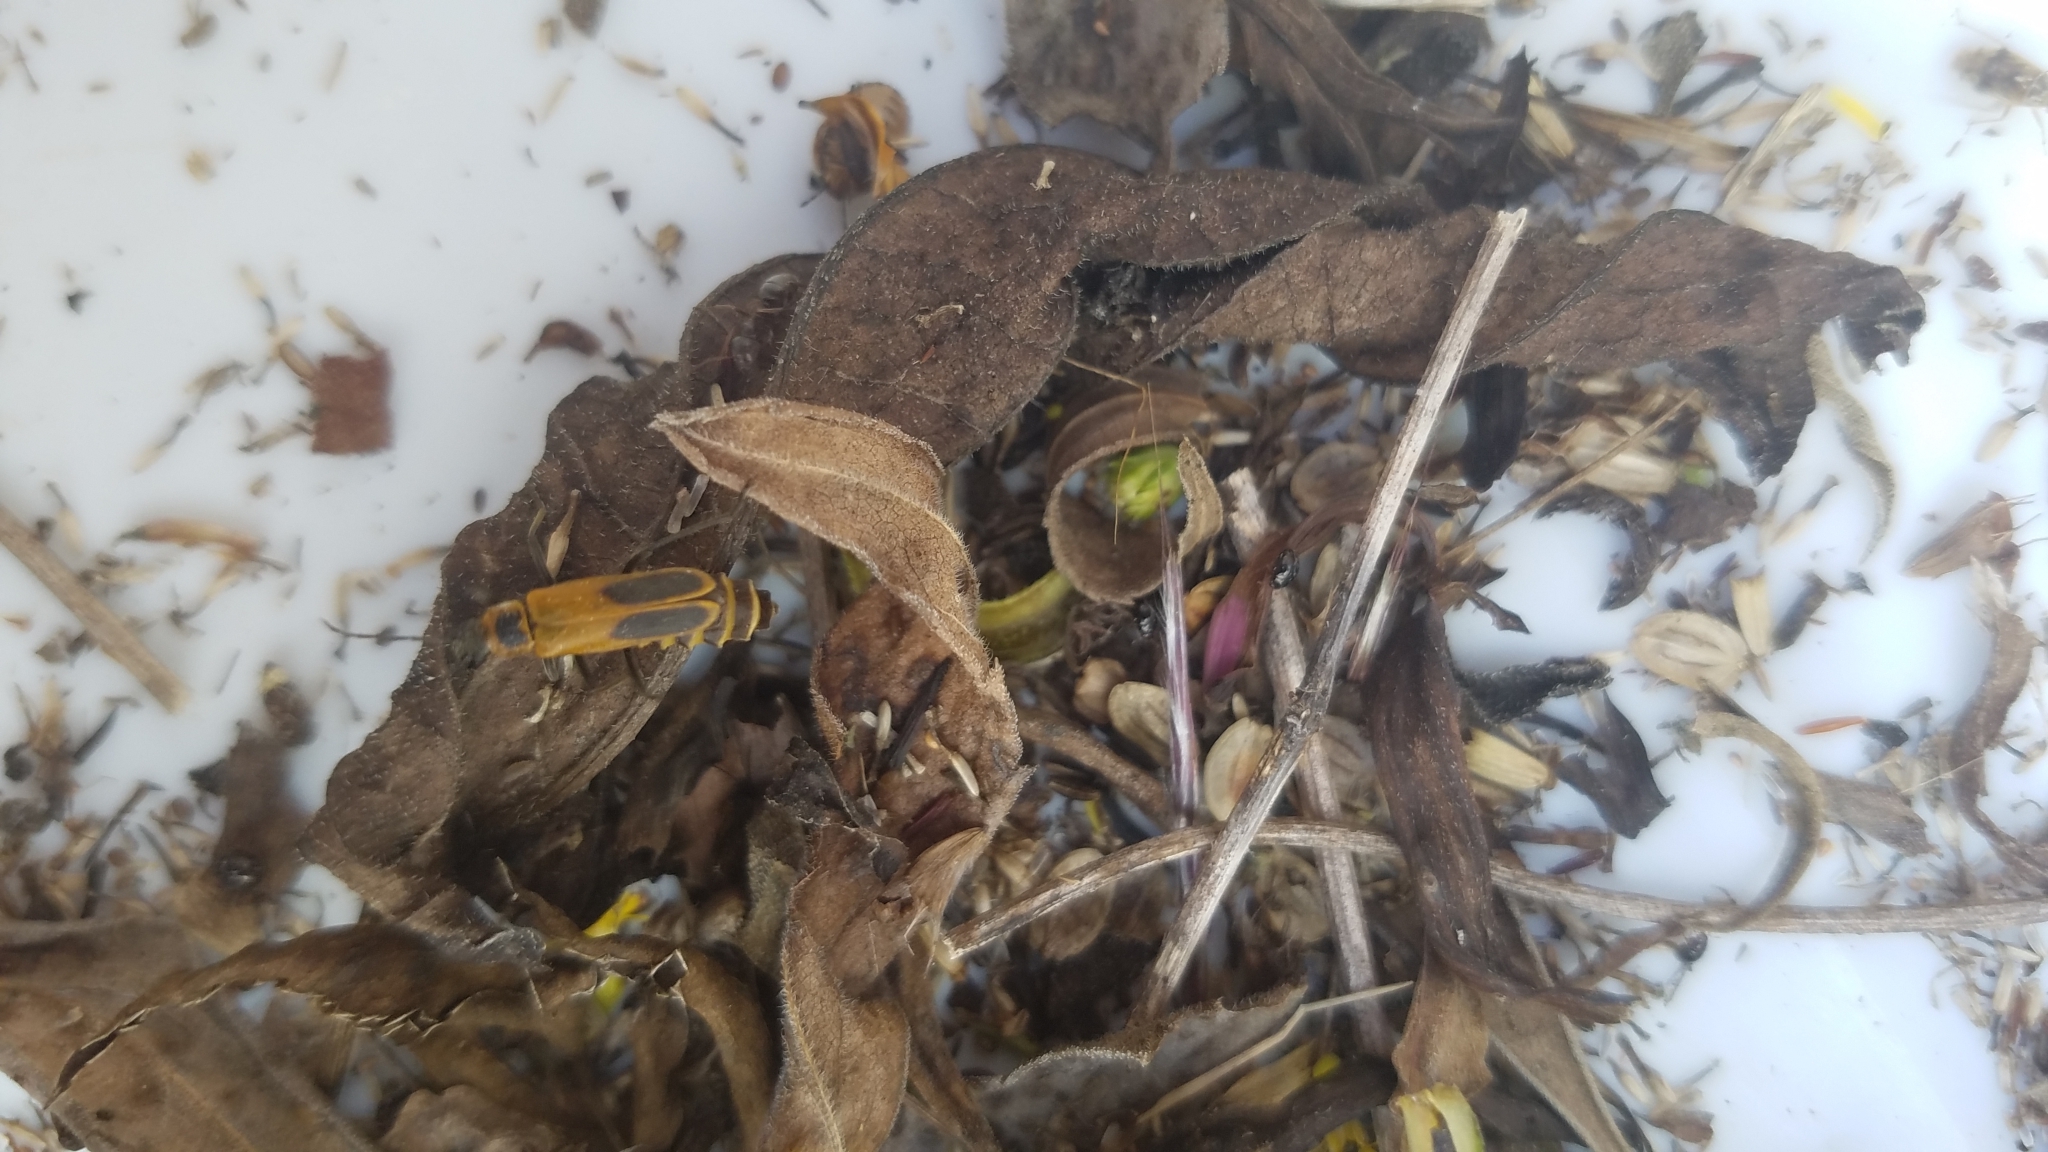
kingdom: Animalia
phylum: Arthropoda
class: Insecta
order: Coleoptera
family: Cantharidae
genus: Chauliognathus
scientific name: Chauliognathus pensylvanicus
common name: Goldenrod soldier beetle
